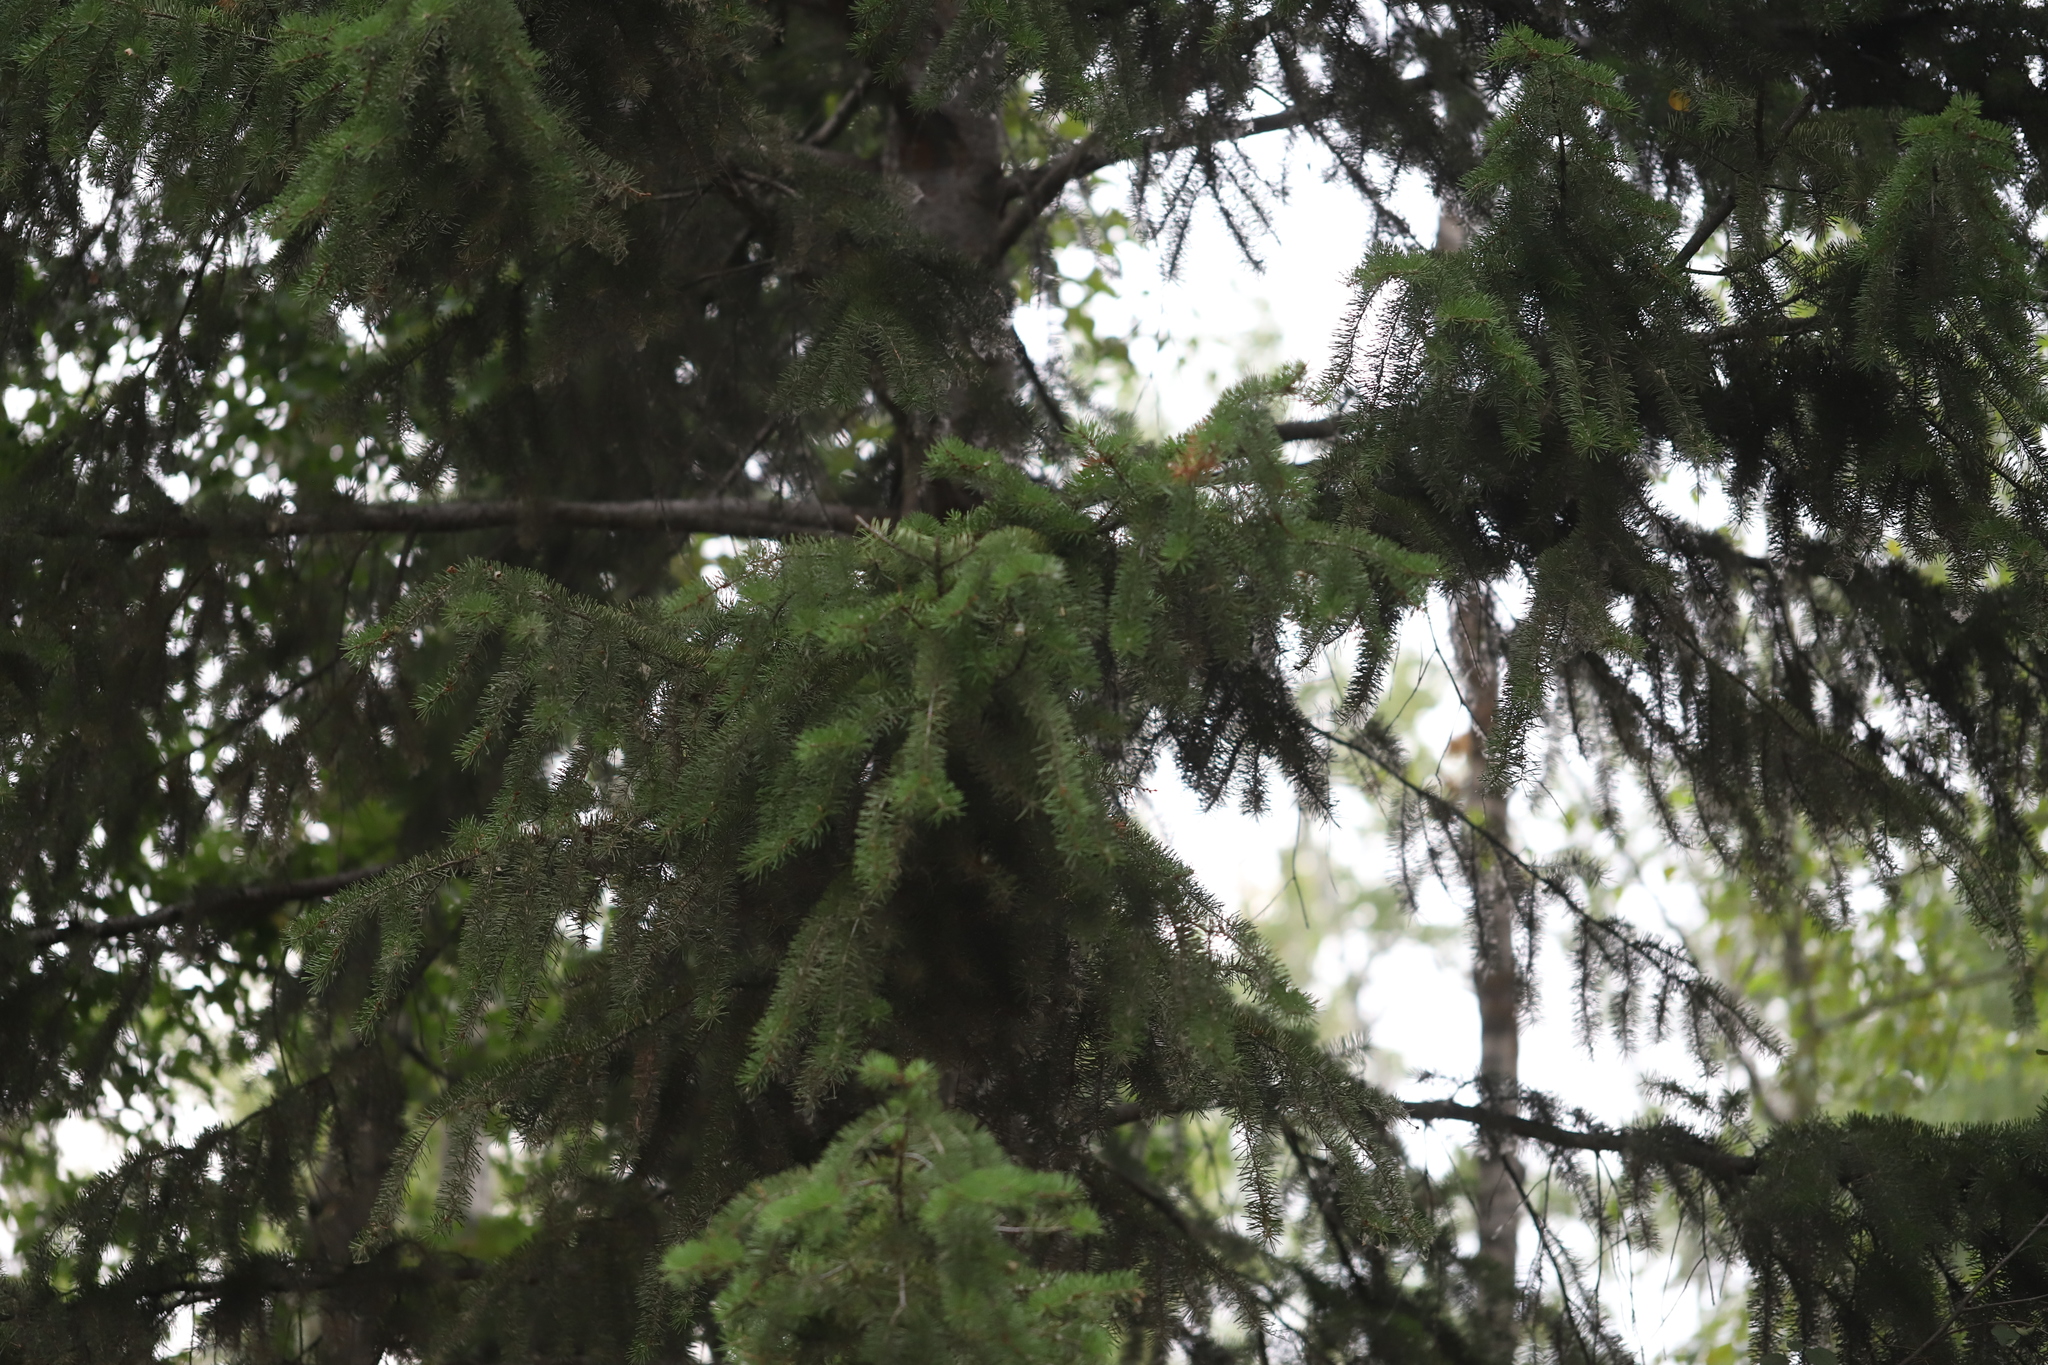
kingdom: Plantae
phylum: Tracheophyta
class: Pinopsida
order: Pinales
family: Pinaceae
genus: Pseudotsuga
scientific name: Pseudotsuga menziesii
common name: Douglas fir
